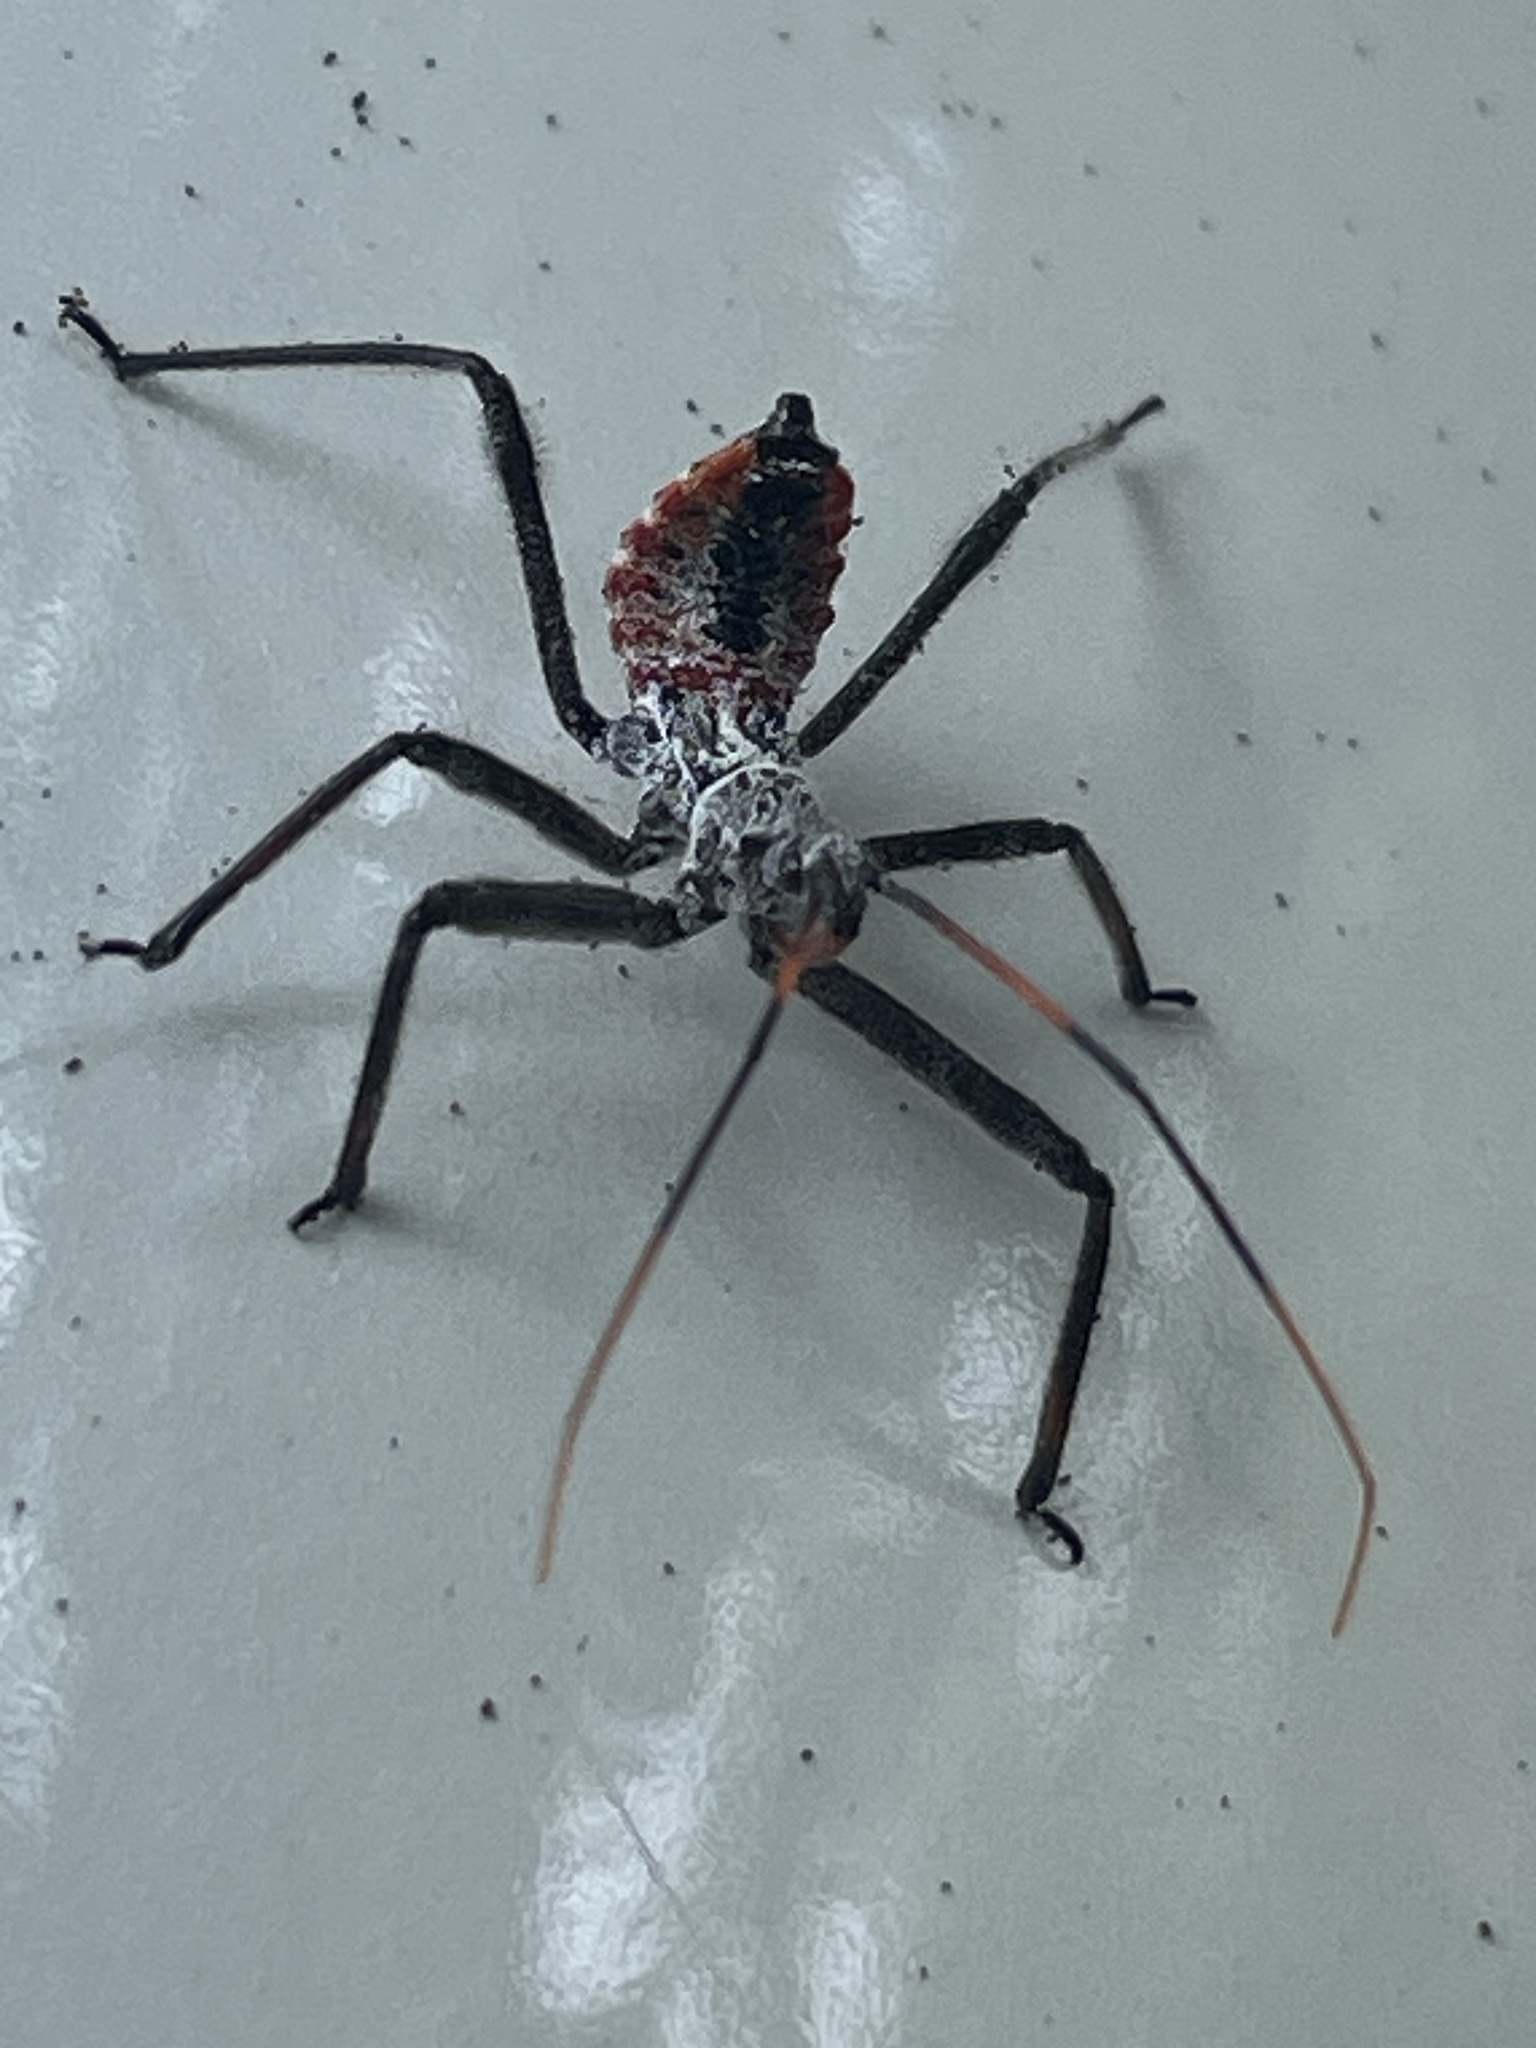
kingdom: Animalia
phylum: Arthropoda
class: Insecta
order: Hemiptera
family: Reduviidae
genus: Arilus
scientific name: Arilus cristatus
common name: North american wheel bug
